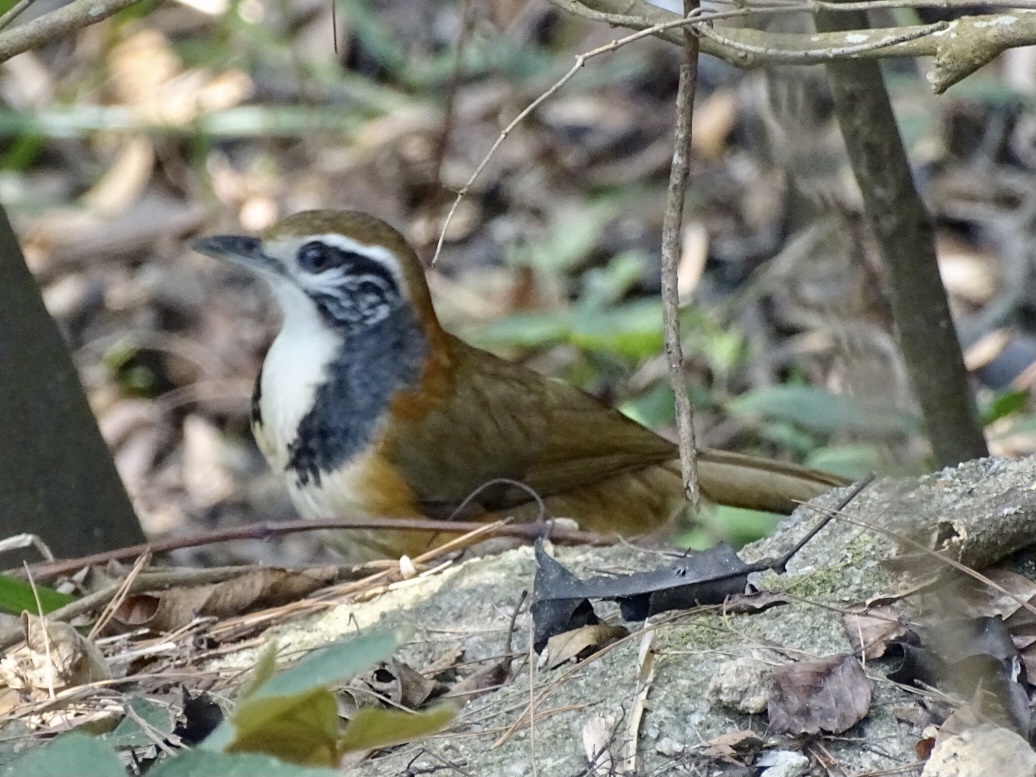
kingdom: Animalia
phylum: Chordata
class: Aves
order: Passeriformes
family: Leiothrichidae
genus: Garrulax
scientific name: Garrulax pectoralis
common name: Greater necklaced laughingthrush
